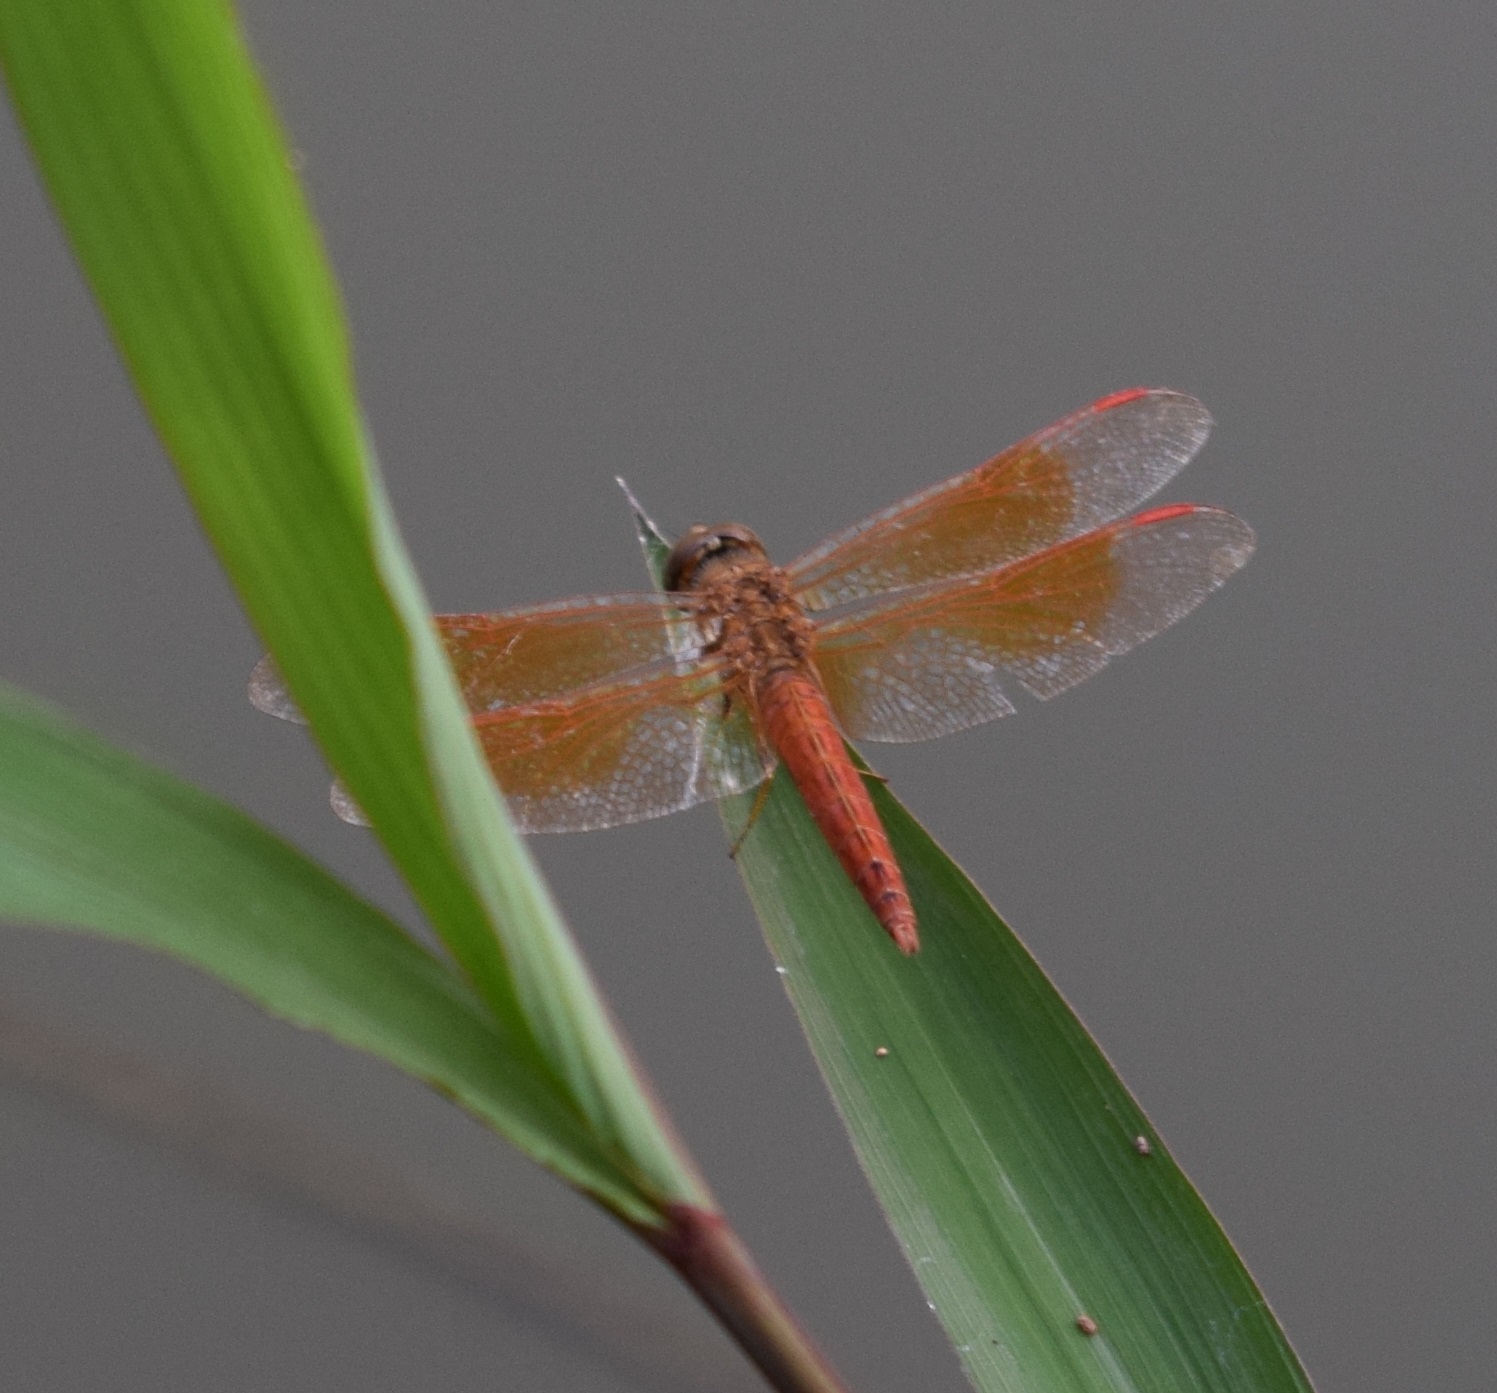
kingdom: Animalia
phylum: Arthropoda
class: Insecta
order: Odonata
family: Libellulidae
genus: Brachythemis
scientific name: Brachythemis contaminata
